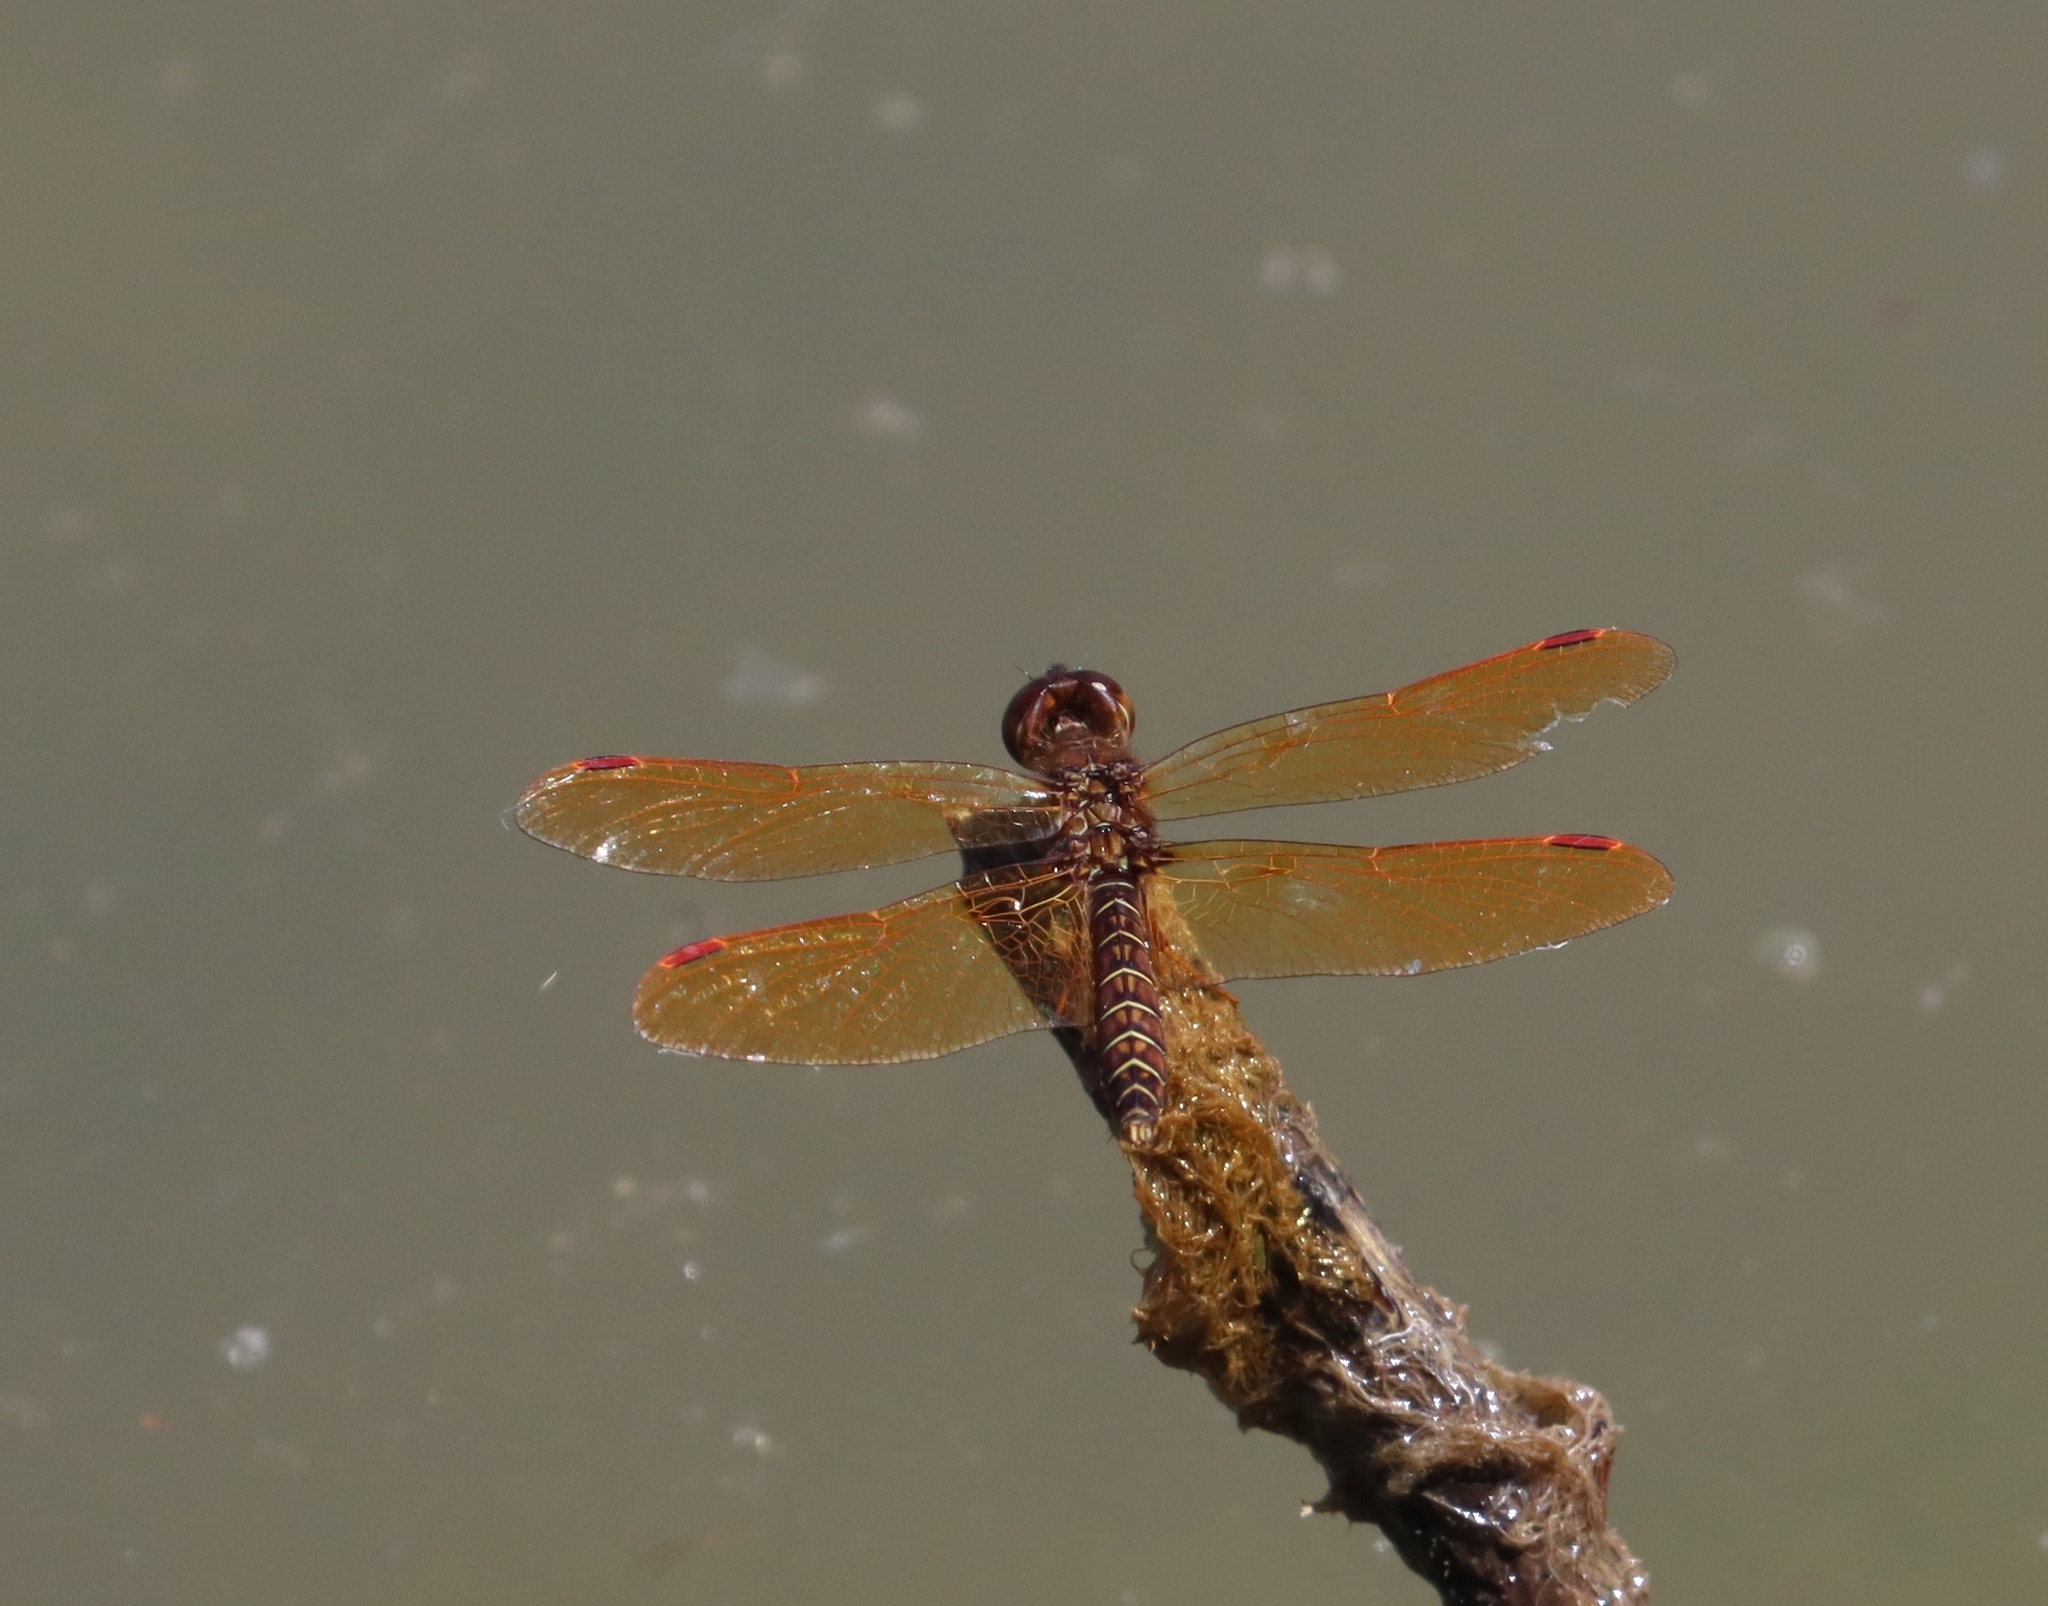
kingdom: Animalia
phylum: Arthropoda
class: Insecta
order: Odonata
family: Libellulidae
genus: Perithemis
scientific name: Perithemis tenera
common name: Eastern amberwing
